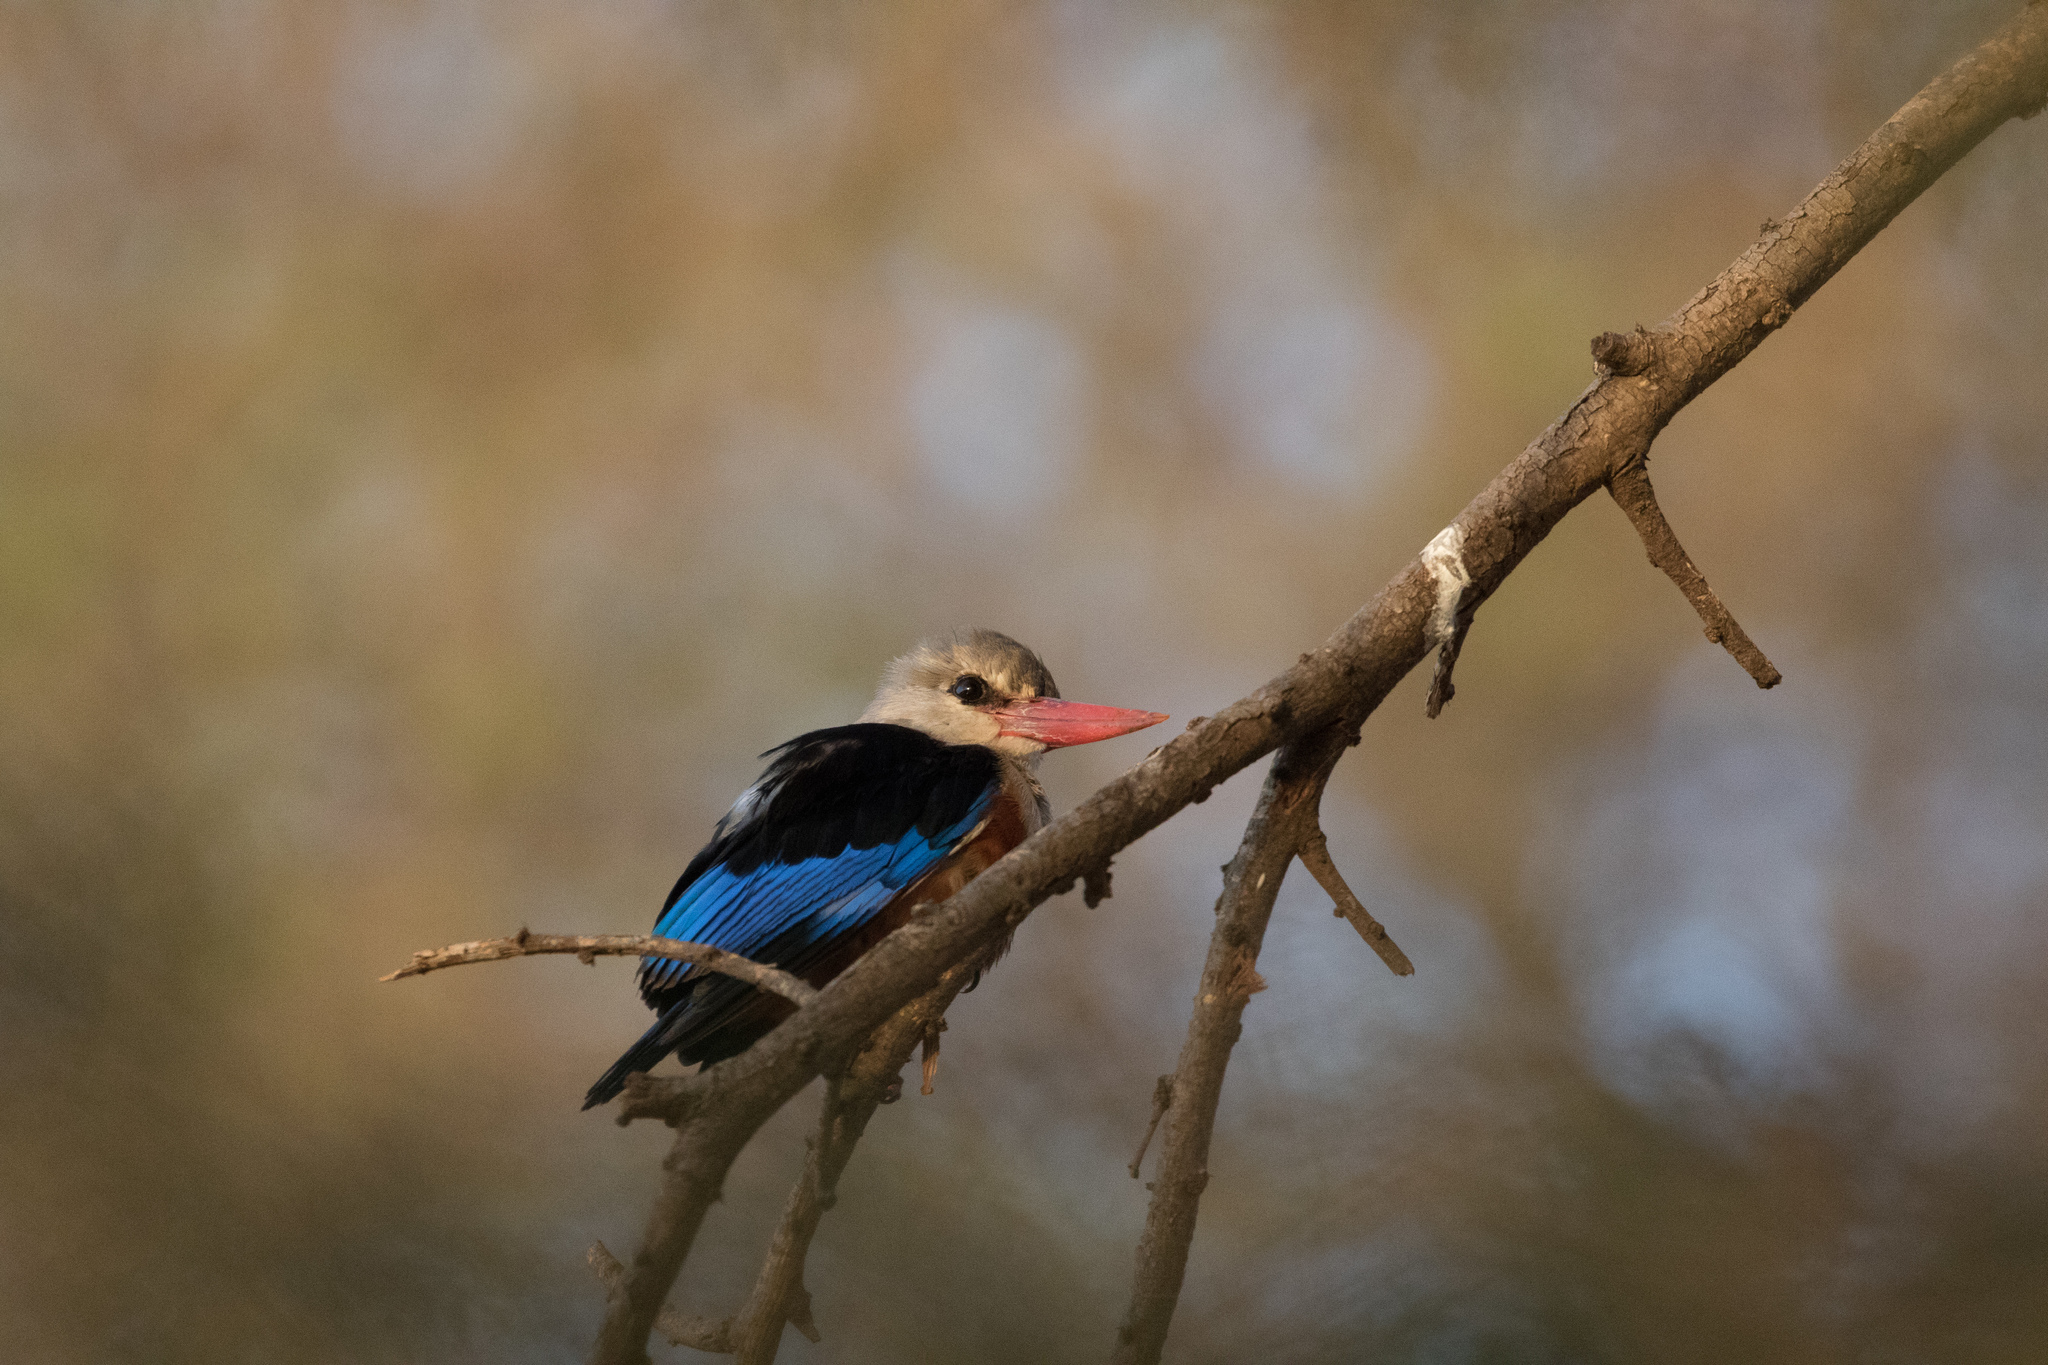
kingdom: Animalia
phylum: Chordata
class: Aves
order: Coraciiformes
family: Alcedinidae
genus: Halcyon
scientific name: Halcyon leucocephala
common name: Grey-headed kingfisher
